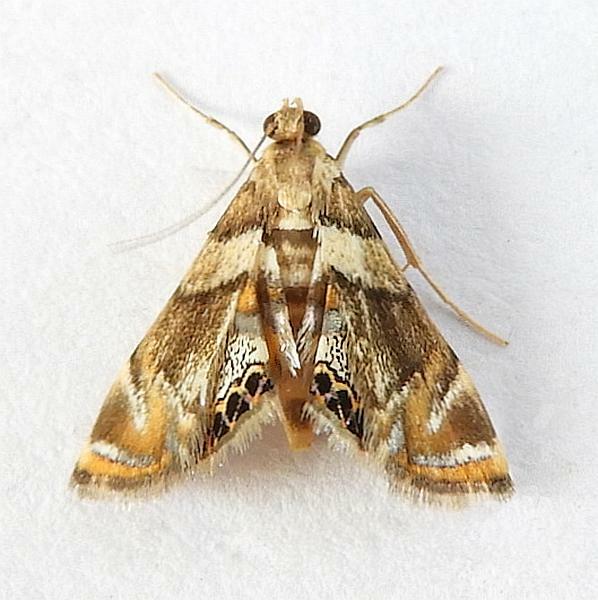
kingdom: Animalia
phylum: Arthropoda
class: Insecta
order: Lepidoptera
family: Crambidae
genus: Neargyractis
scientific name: Neargyractis slossonalis
